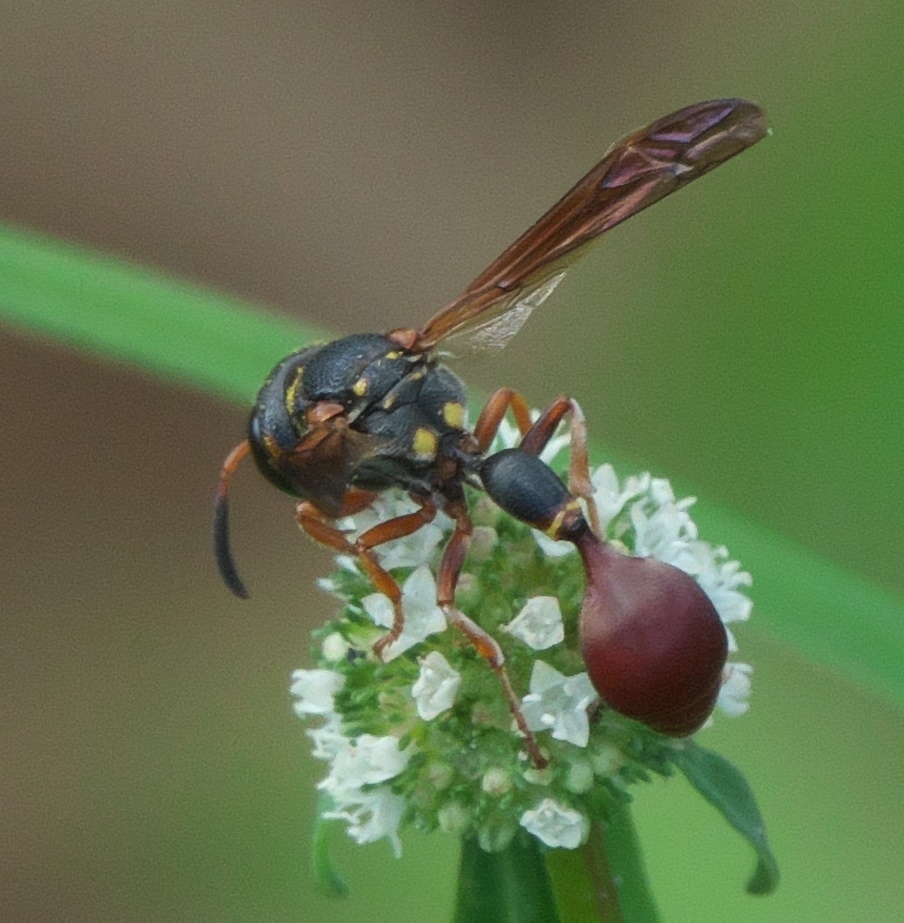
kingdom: Animalia
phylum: Arthropoda
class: Insecta
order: Hymenoptera
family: Eumenidae
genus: Zethus
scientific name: Zethus slossonae
